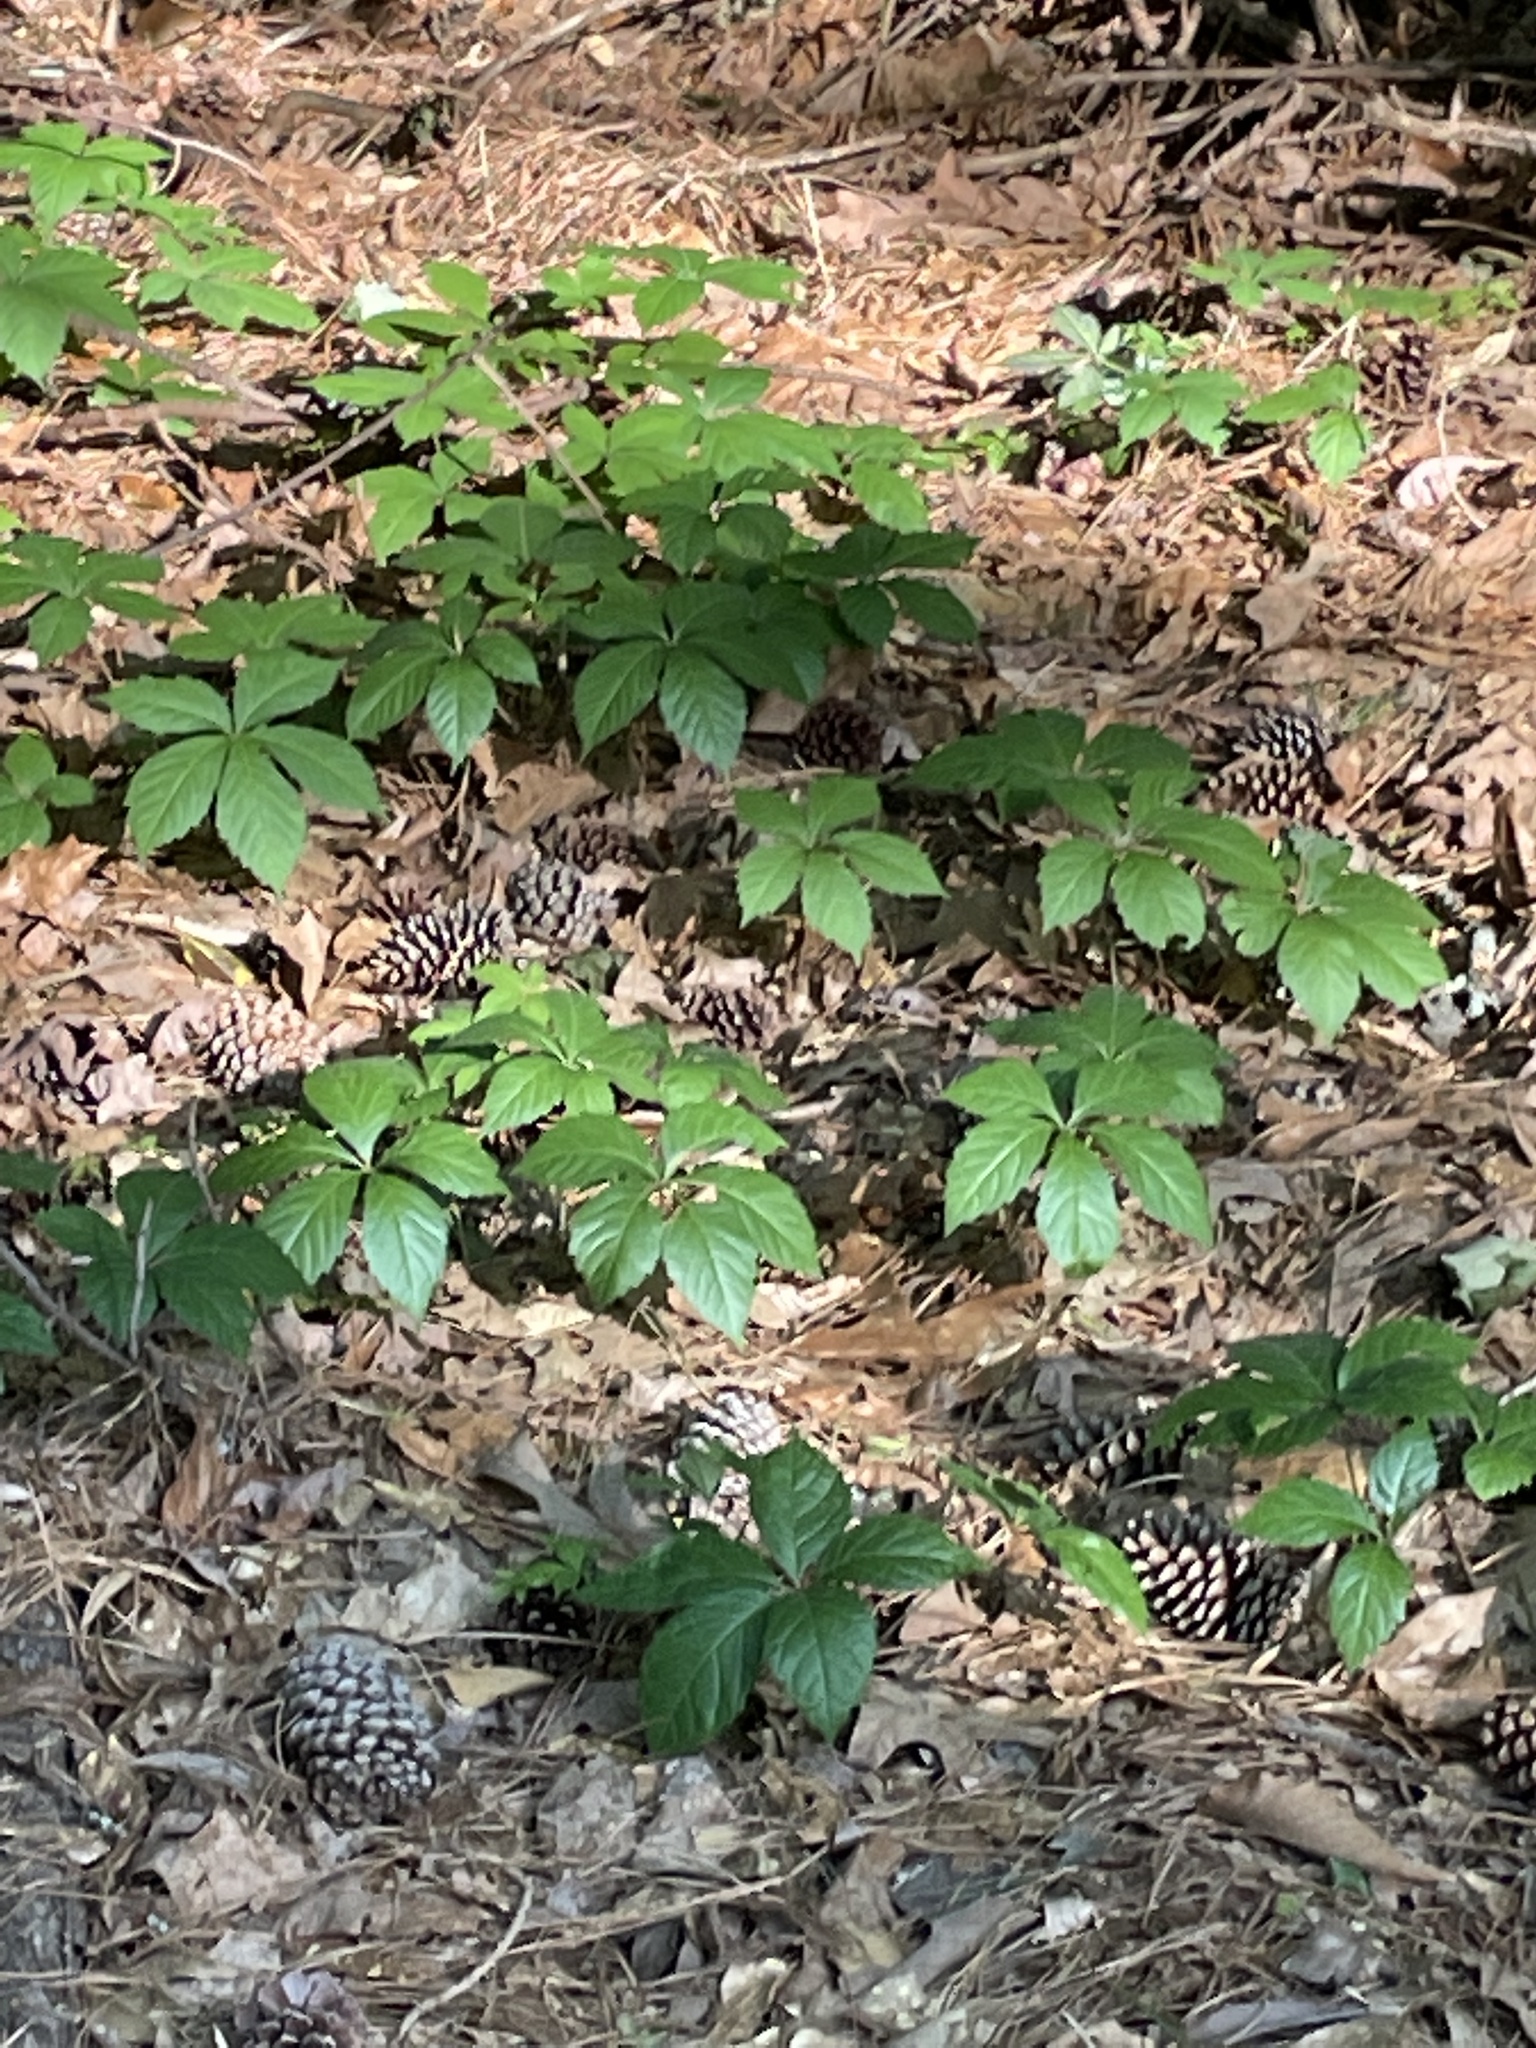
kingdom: Plantae
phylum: Tracheophyta
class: Magnoliopsida
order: Vitales
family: Vitaceae
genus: Parthenocissus
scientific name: Parthenocissus quinquefolia
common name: Virginia-creeper
